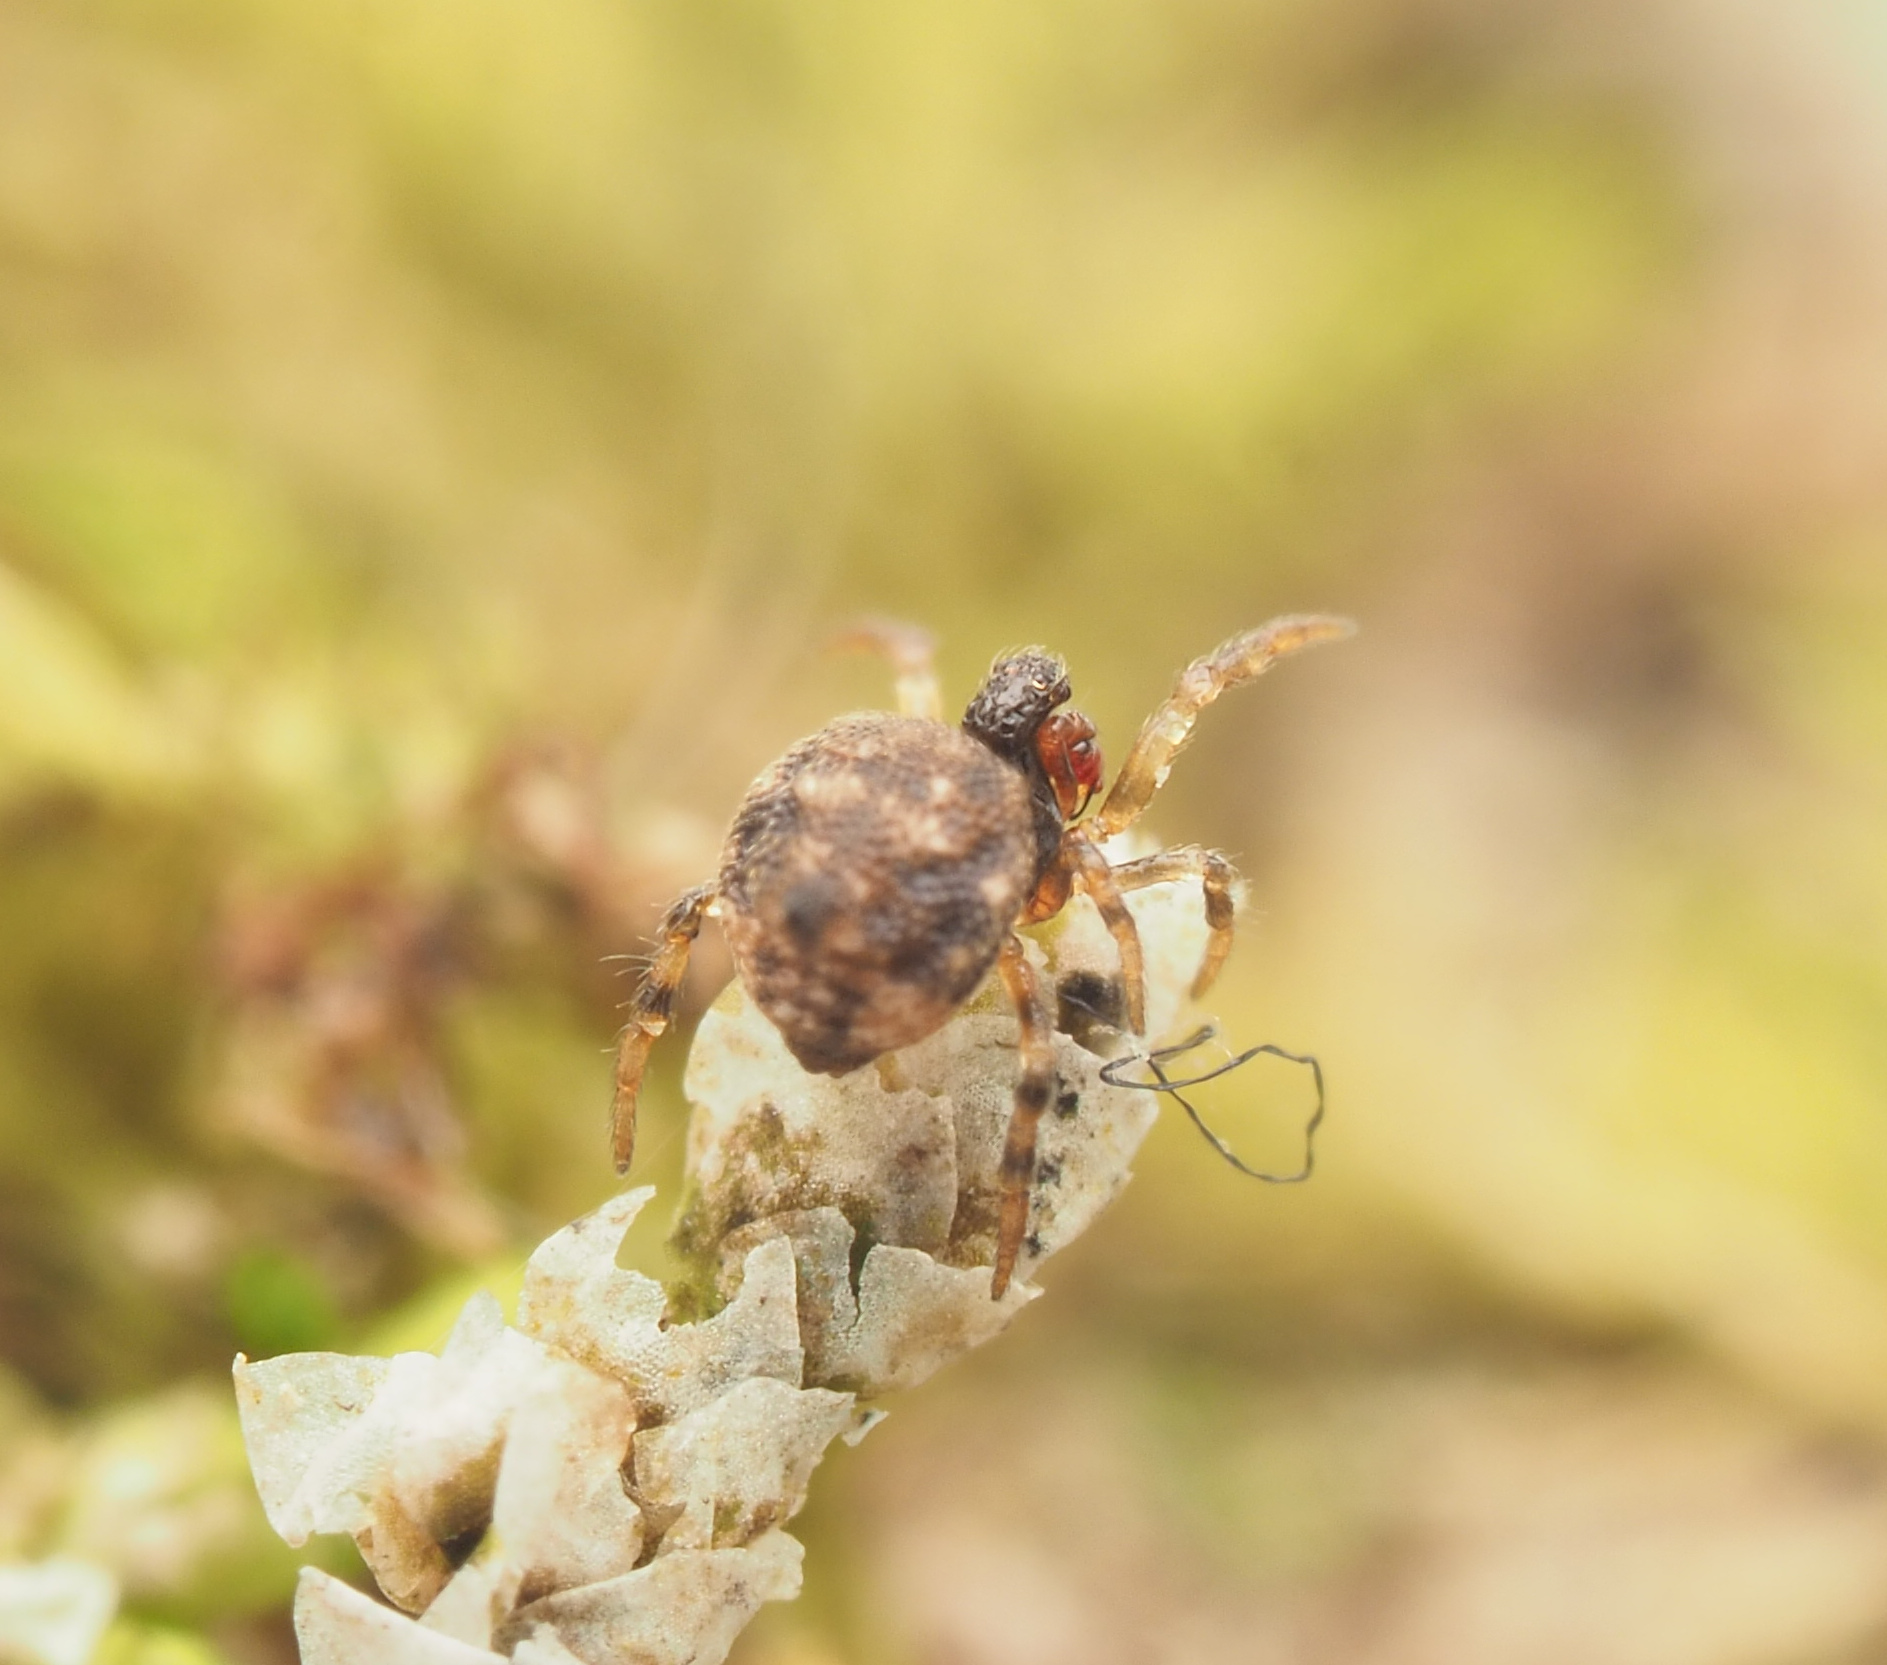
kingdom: Animalia
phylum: Arthropoda
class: Arachnida
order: Araneae
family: Theridiidae
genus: Phoroncidia
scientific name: Phoroncidia trituberculata
